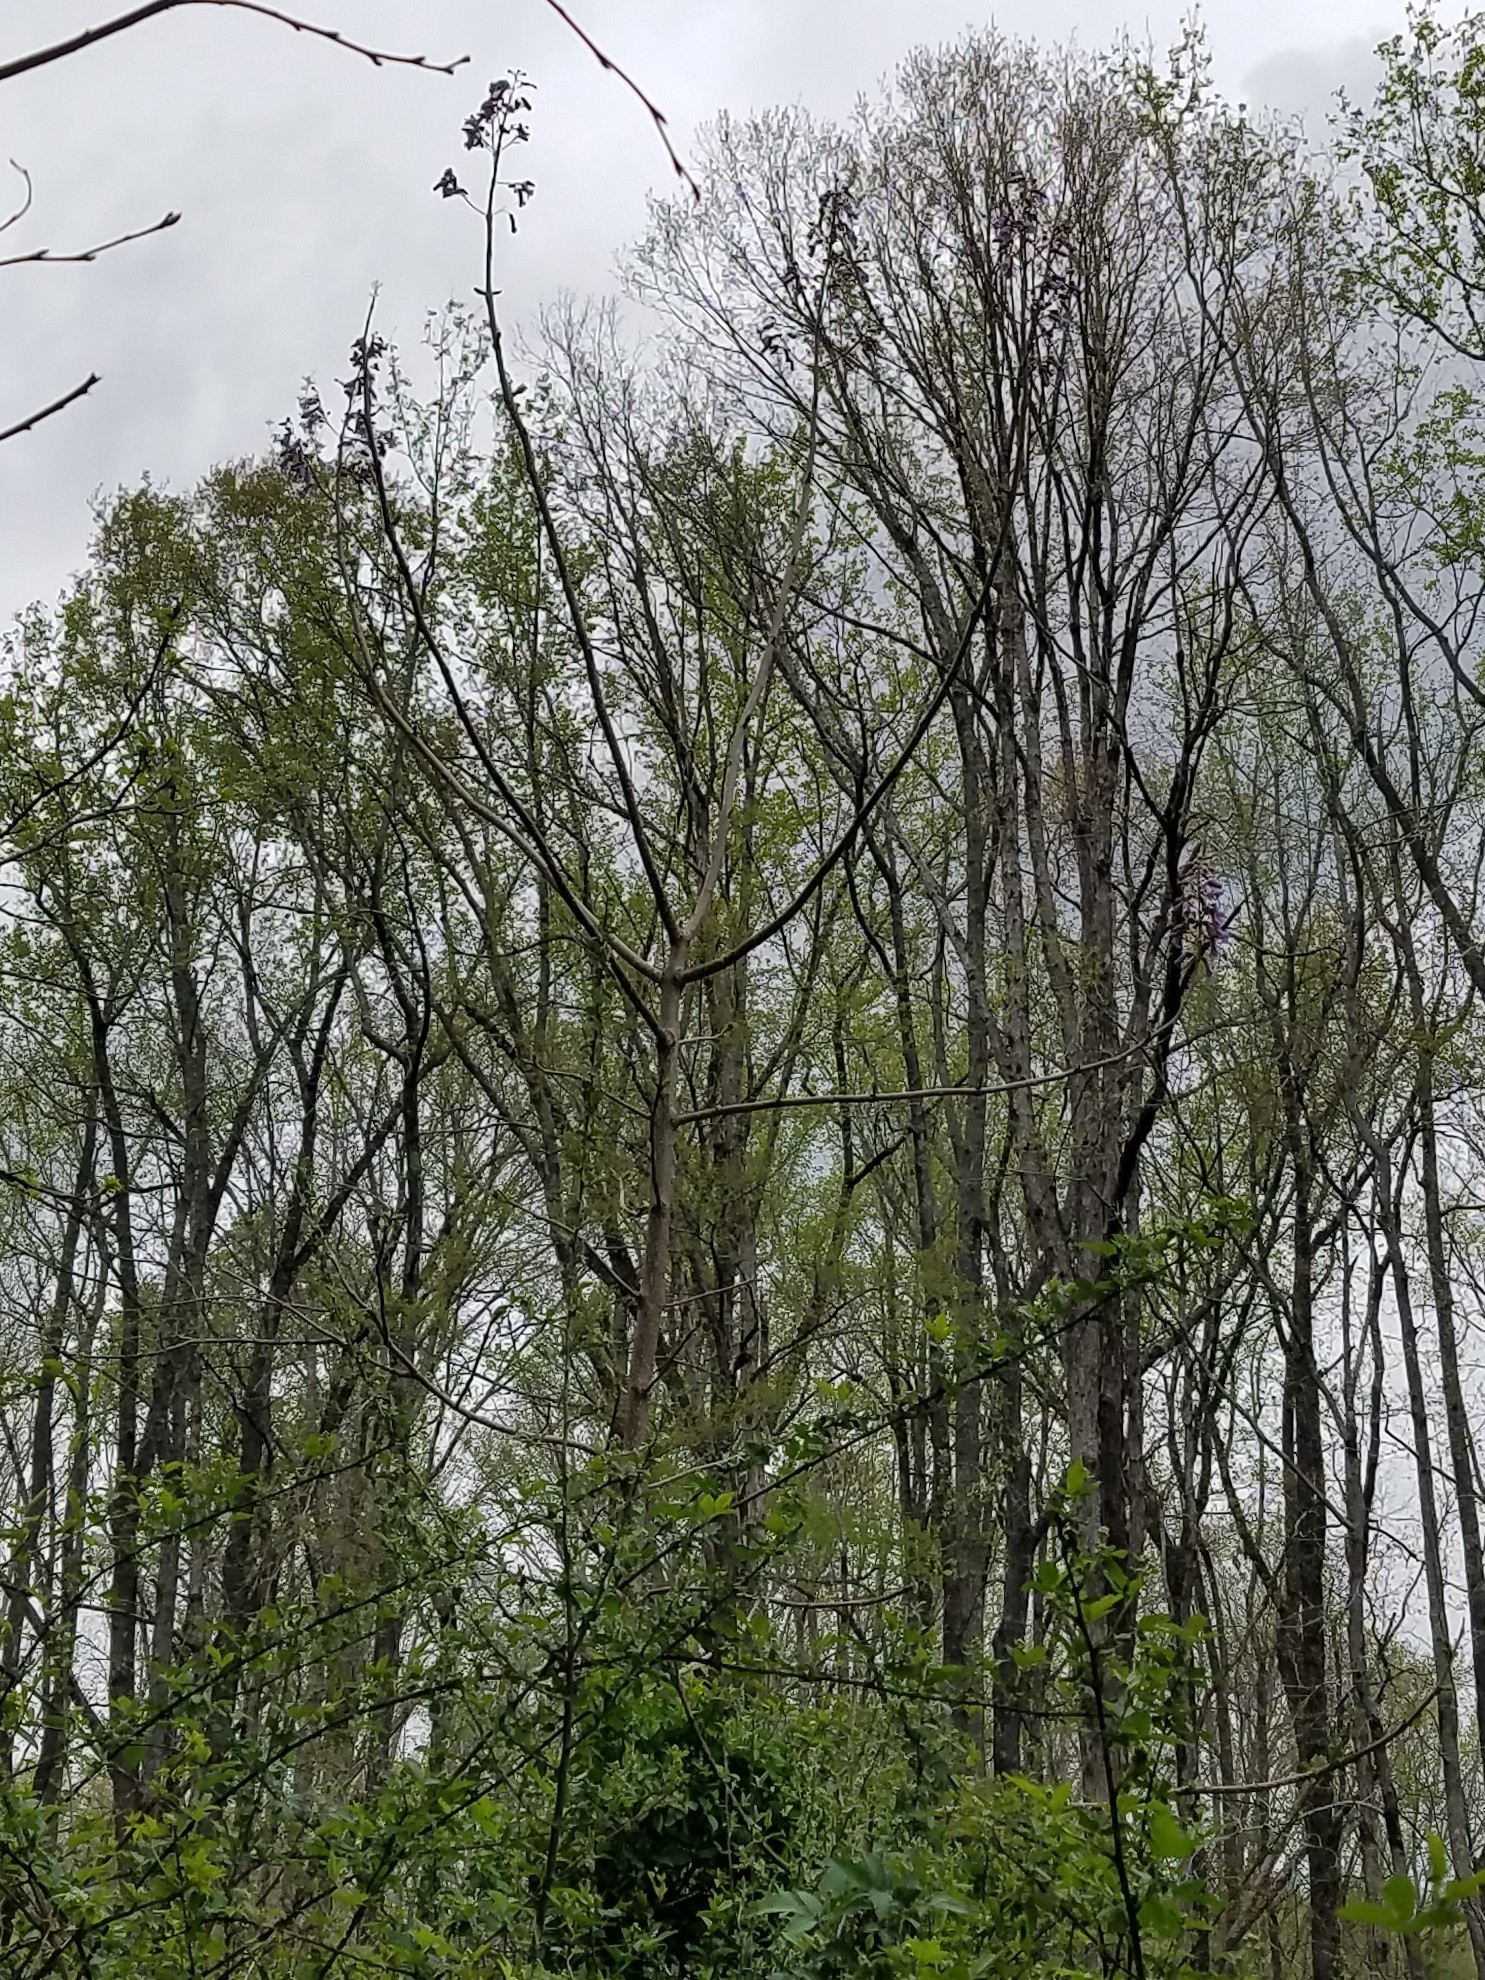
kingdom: Plantae
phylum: Tracheophyta
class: Magnoliopsida
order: Lamiales
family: Paulowniaceae
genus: Paulownia
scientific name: Paulownia tomentosa
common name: Foxglove-tree
